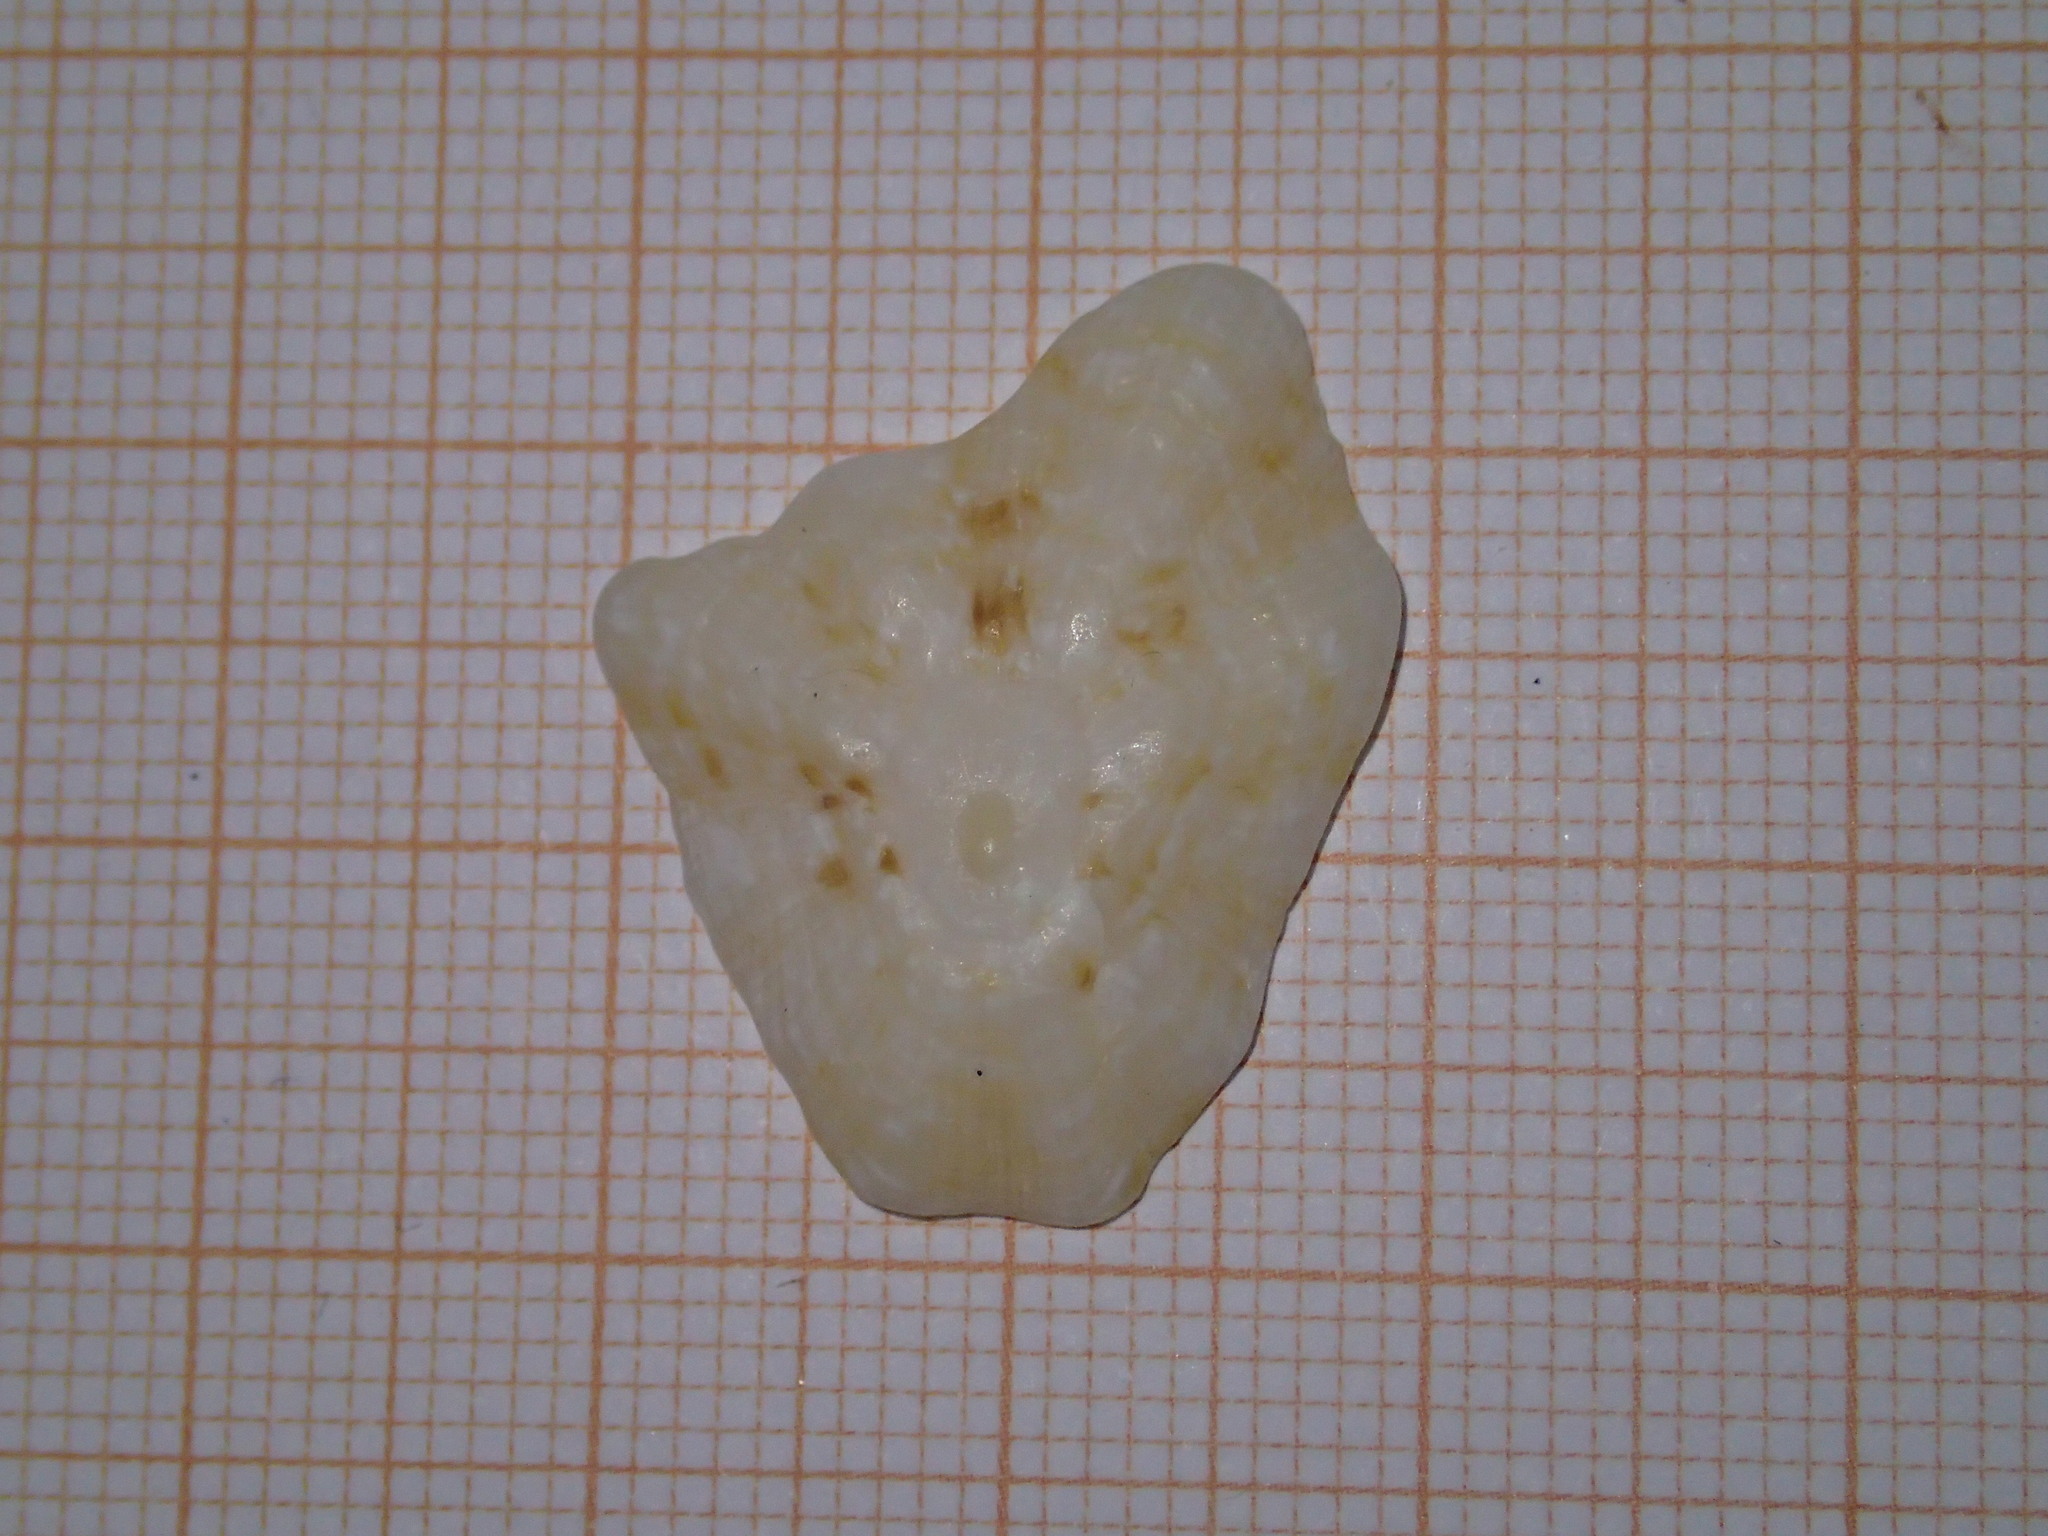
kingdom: Animalia
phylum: Mollusca
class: Gastropoda
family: Patellidae
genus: Patella
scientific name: Patella caerulea
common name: Mediterranean limpet
